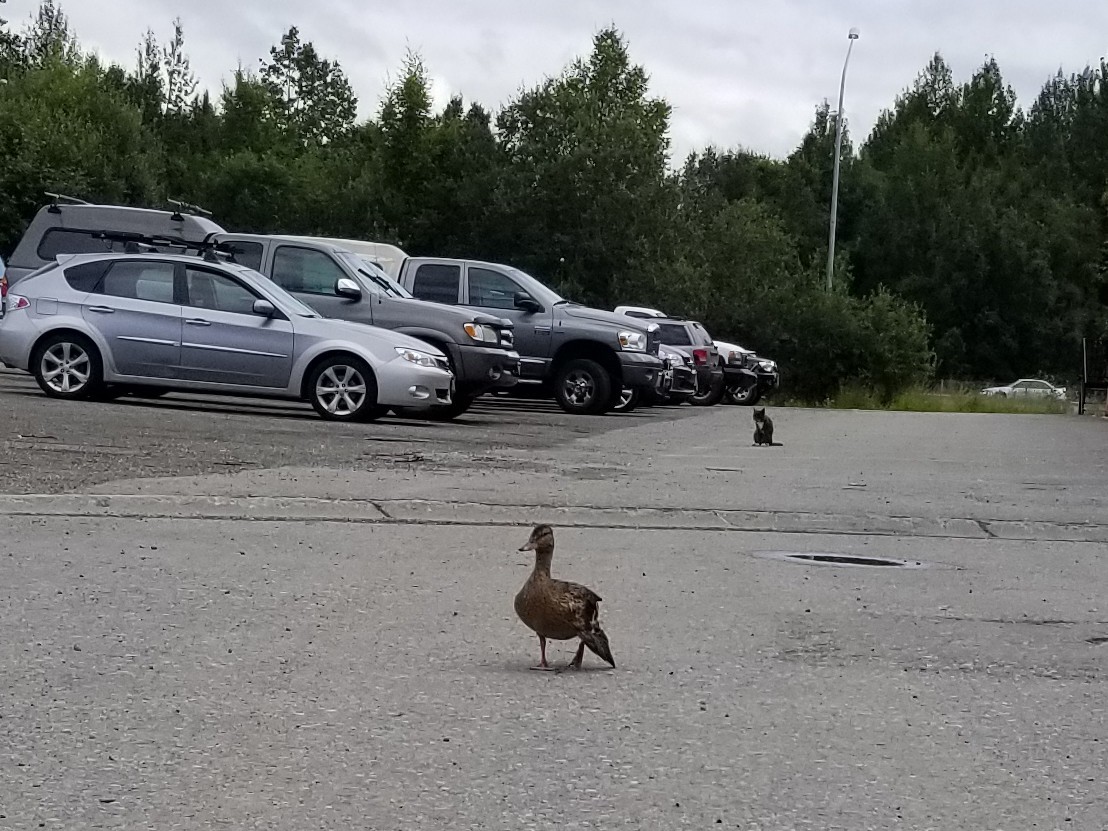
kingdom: Animalia
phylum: Chordata
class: Aves
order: Anseriformes
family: Anatidae
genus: Anas
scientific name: Anas platyrhynchos
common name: Mallard
